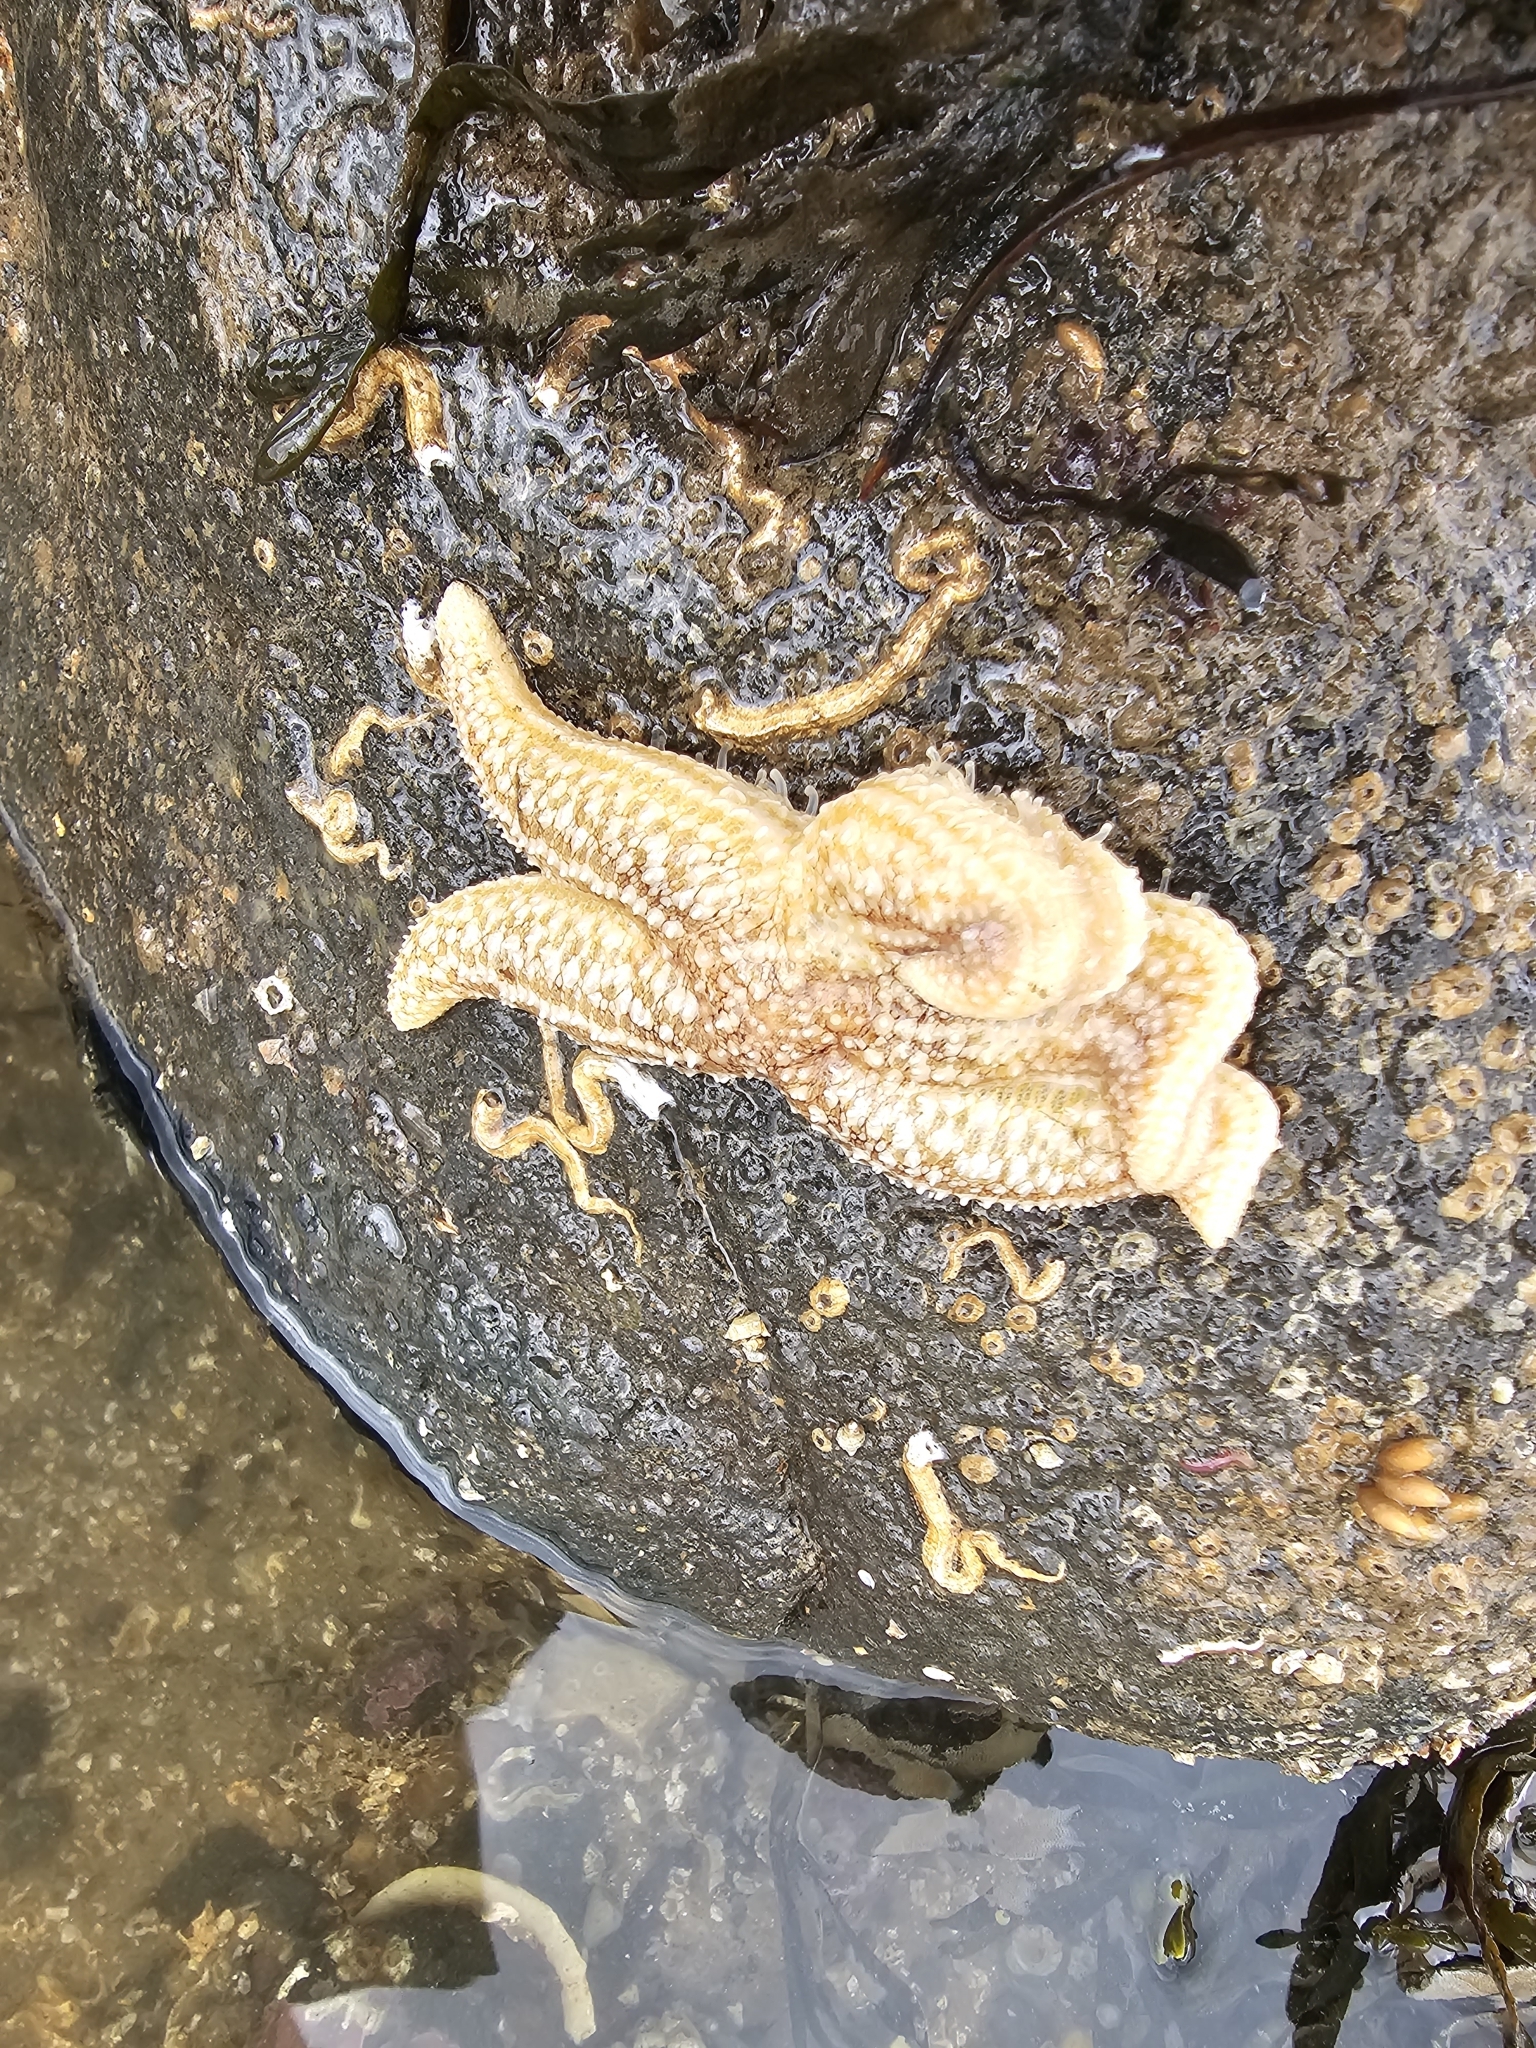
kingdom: Animalia
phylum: Echinodermata
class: Asteroidea
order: Forcipulatida
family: Asteriidae
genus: Asterias
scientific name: Asterias rubens
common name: Common starfish
